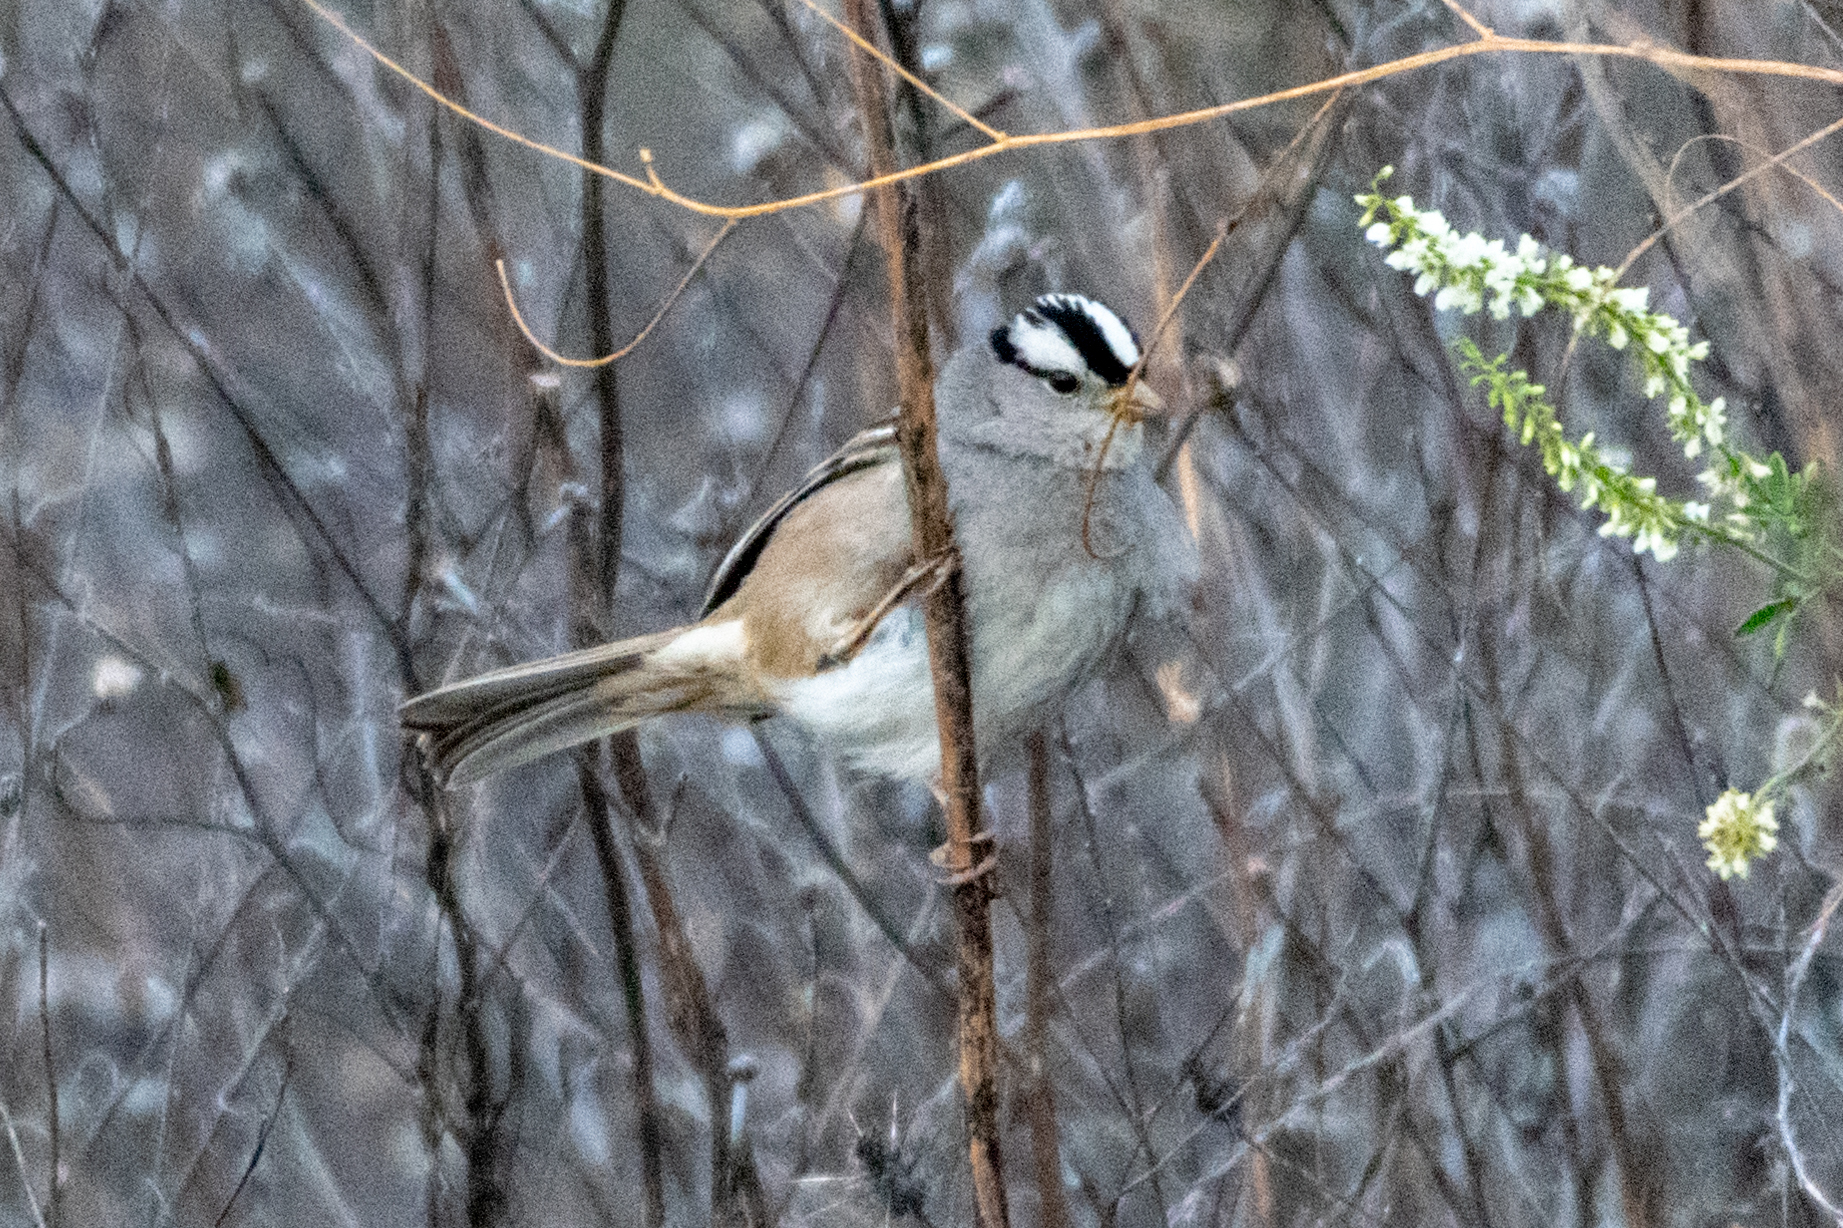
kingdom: Animalia
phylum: Chordata
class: Aves
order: Passeriformes
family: Passerellidae
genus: Zonotrichia
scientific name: Zonotrichia leucophrys
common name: White-crowned sparrow
